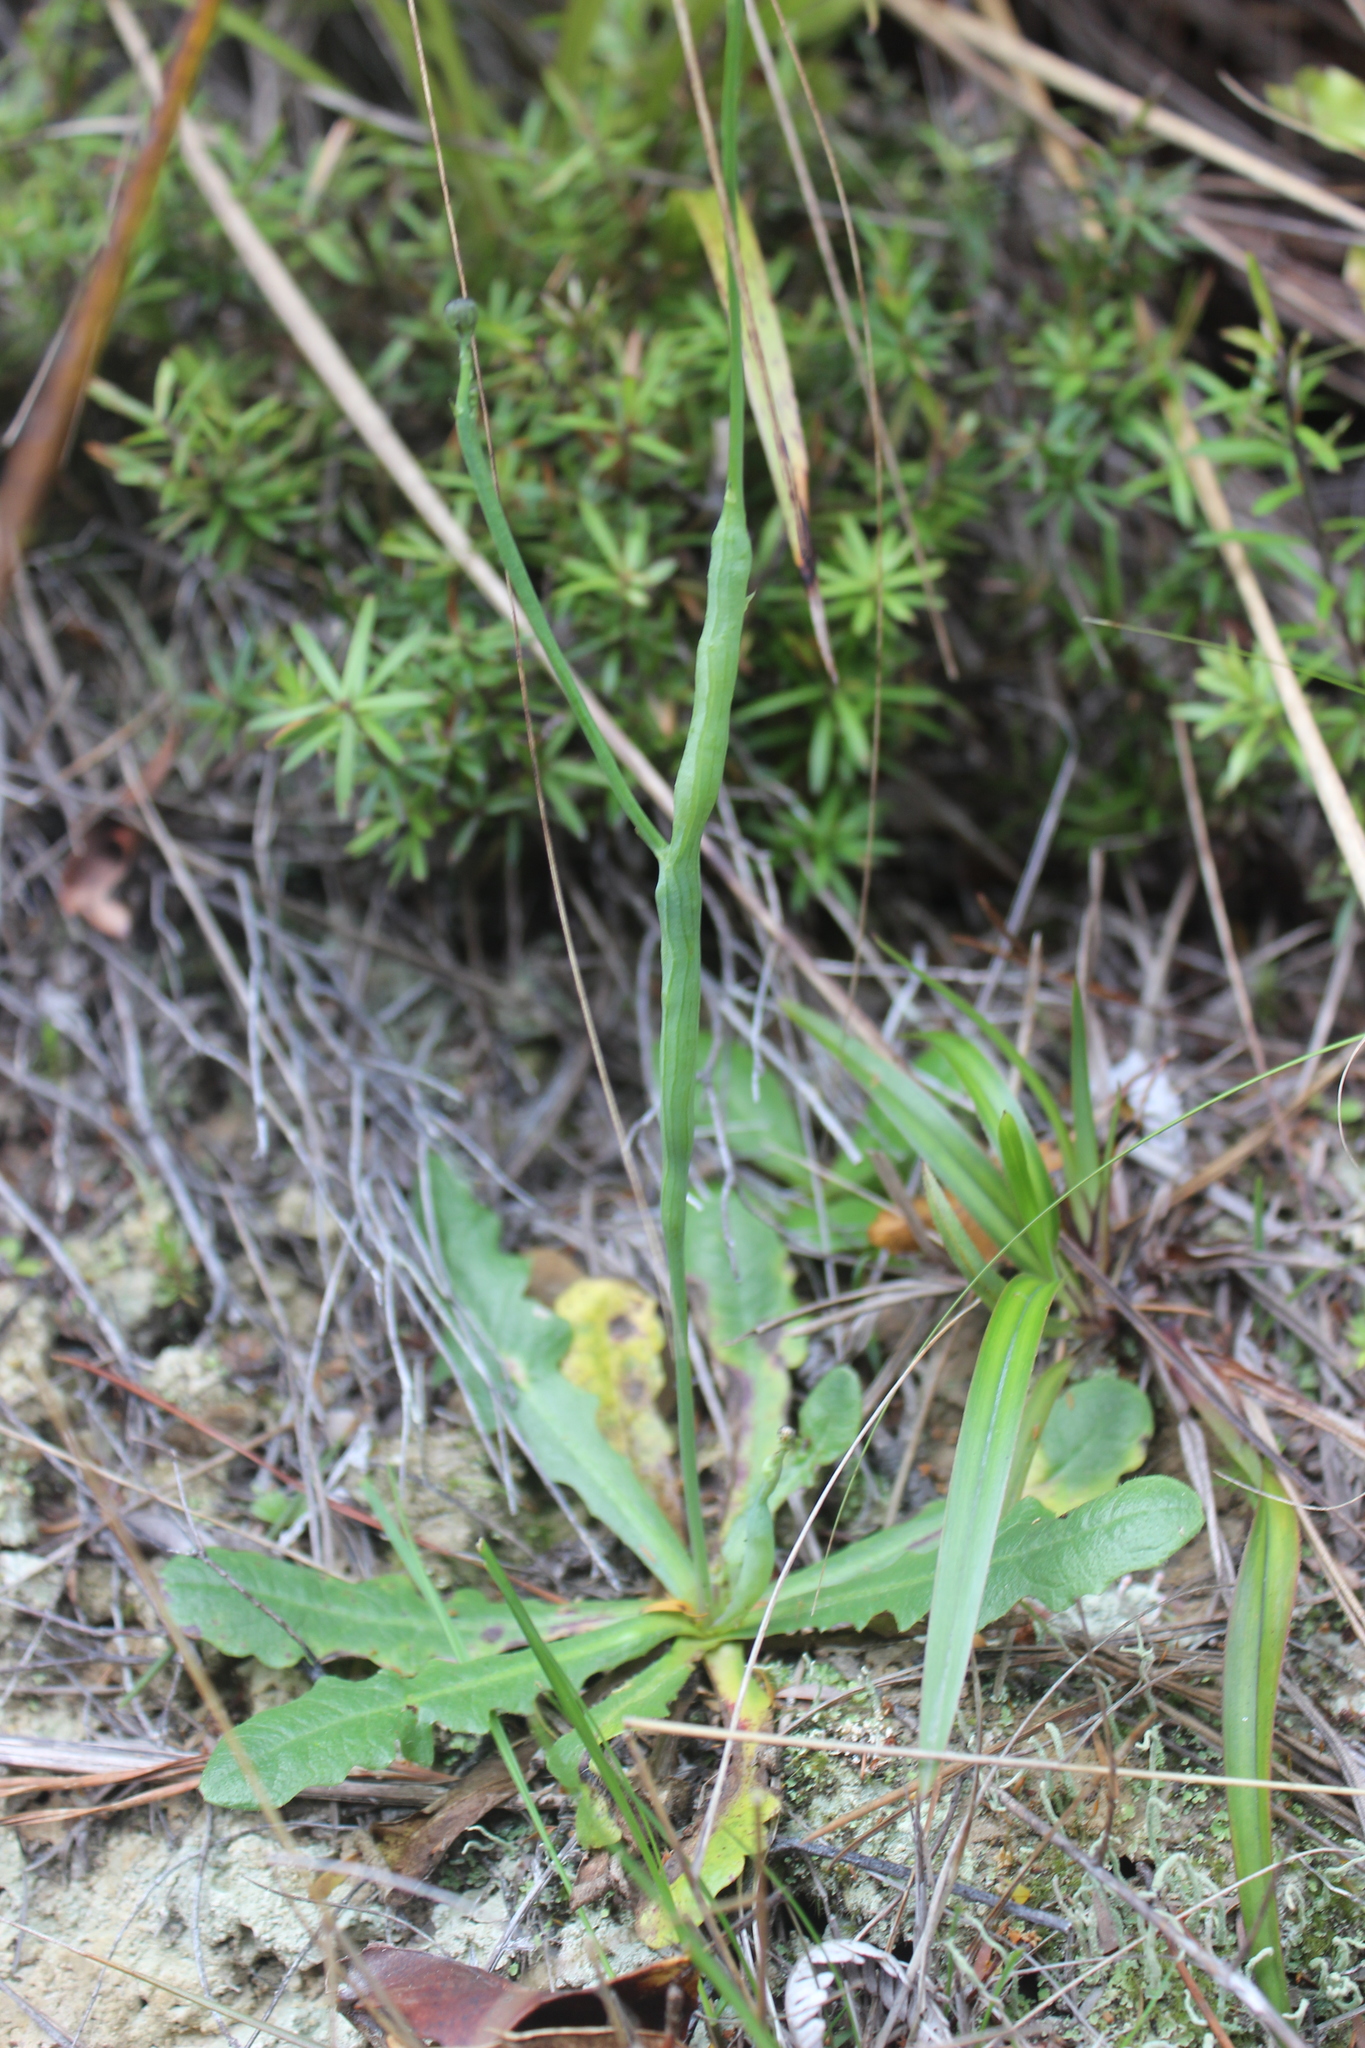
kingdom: Animalia
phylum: Arthropoda
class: Insecta
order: Hymenoptera
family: Cynipidae
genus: Phanacis
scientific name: Phanacis hypochoeridis
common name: Gall wasp
